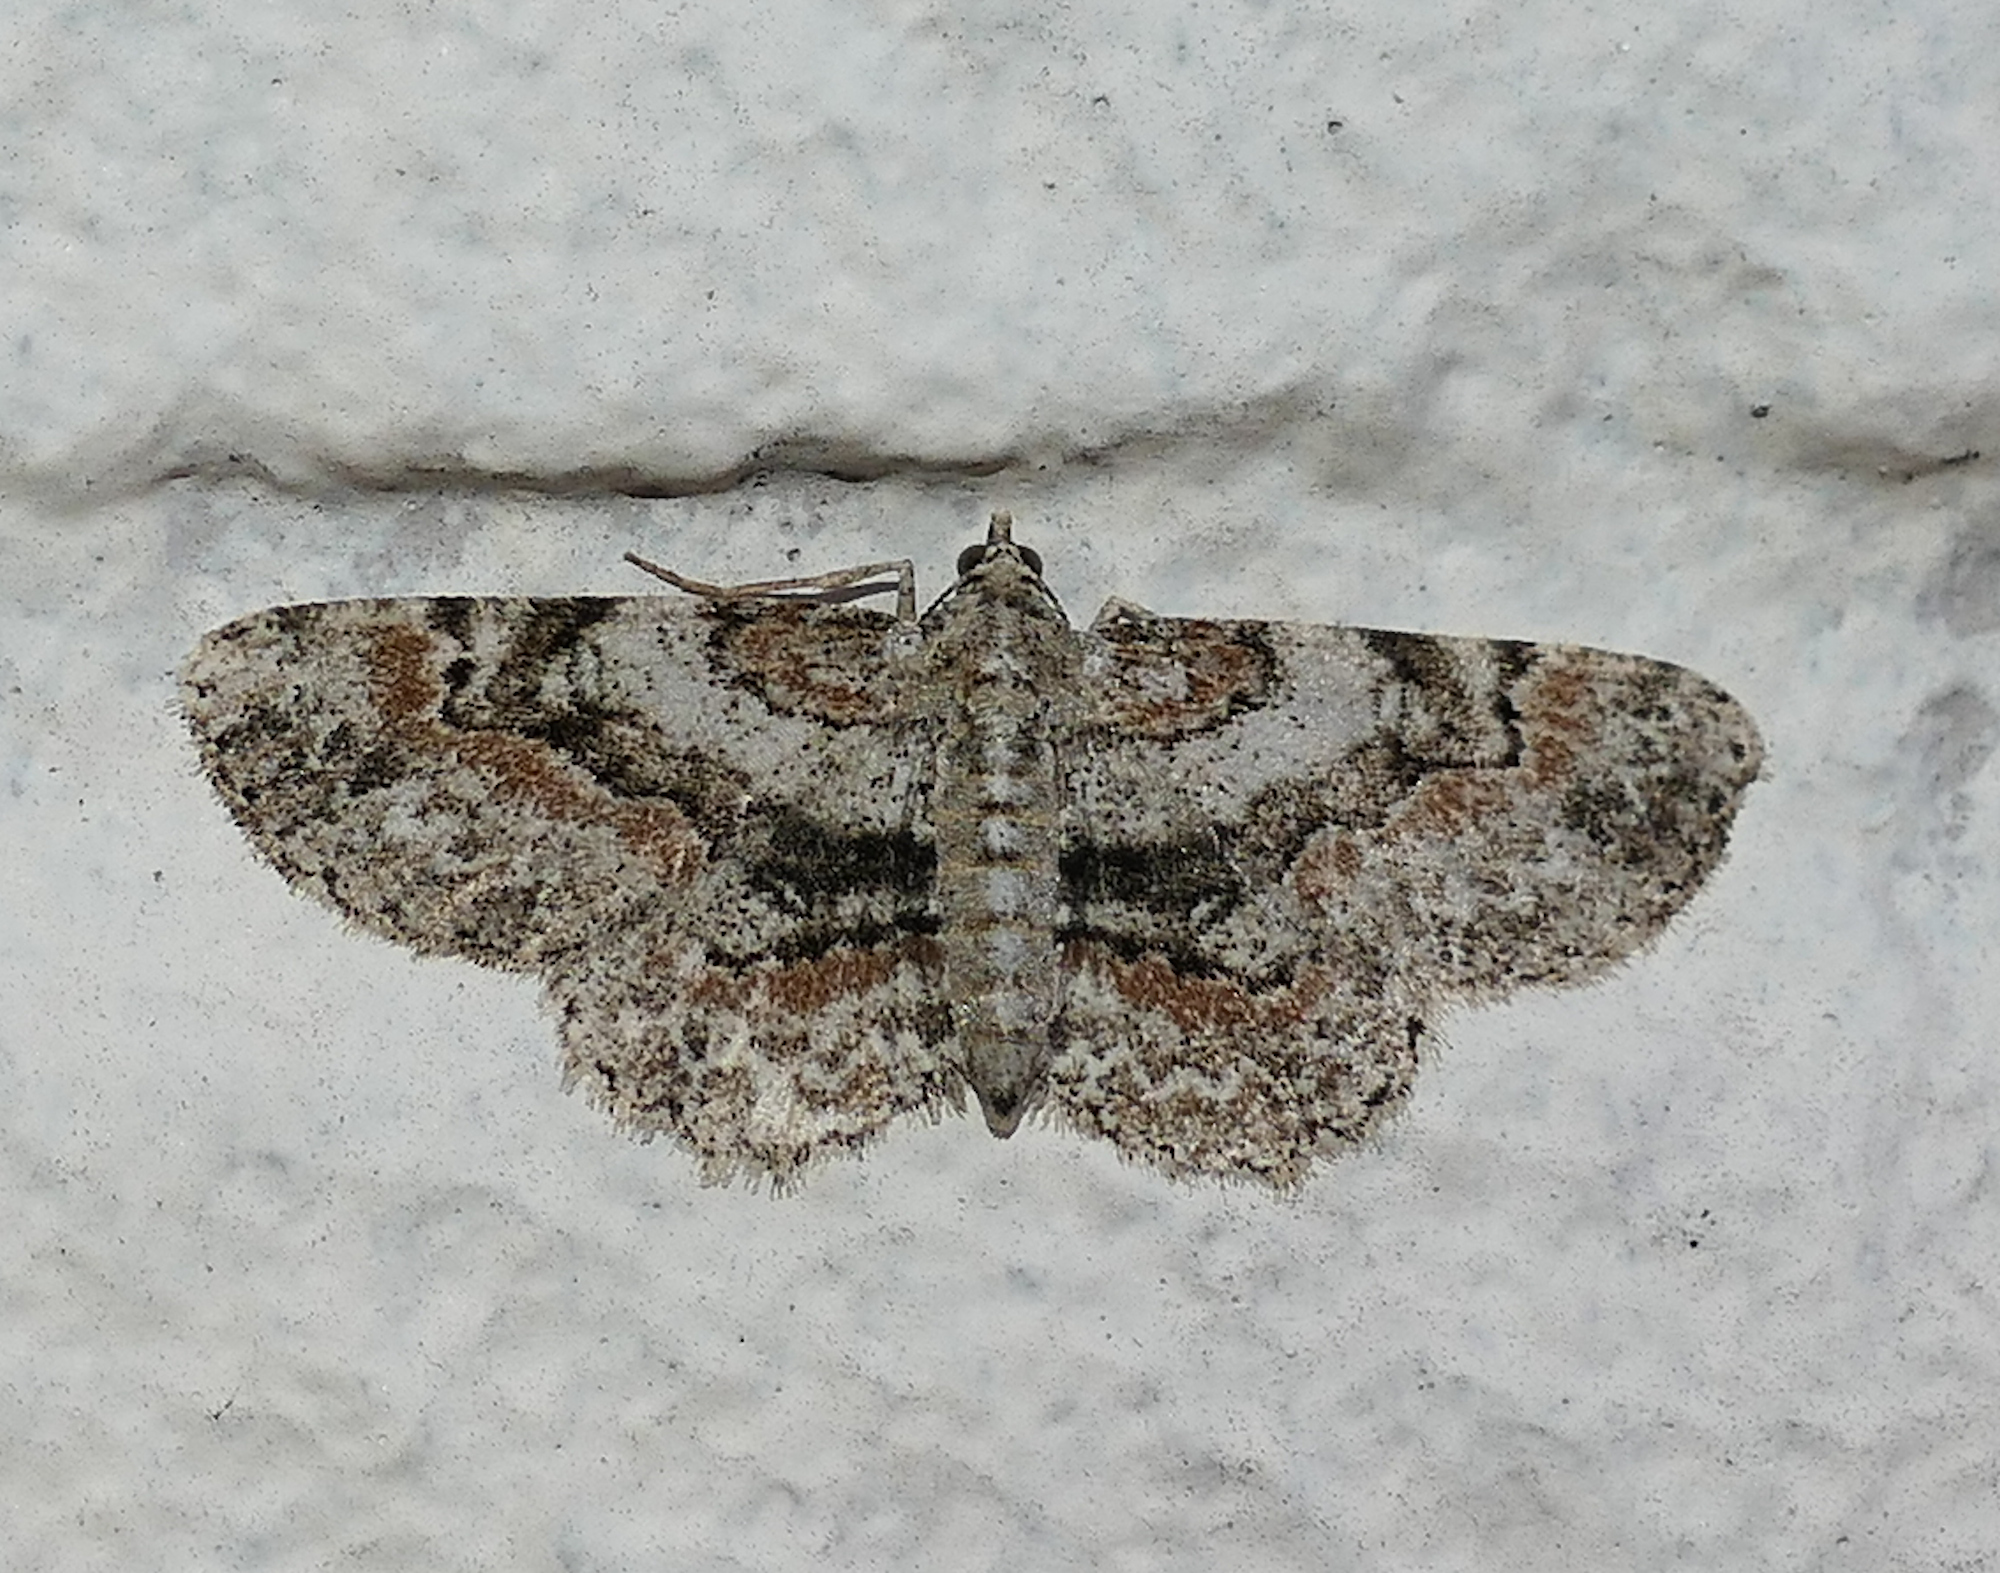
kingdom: Animalia
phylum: Arthropoda
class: Insecta
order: Lepidoptera
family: Geometridae
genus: Iridopsis
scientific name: Iridopsis ephyraria
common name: Pale-winged gray
